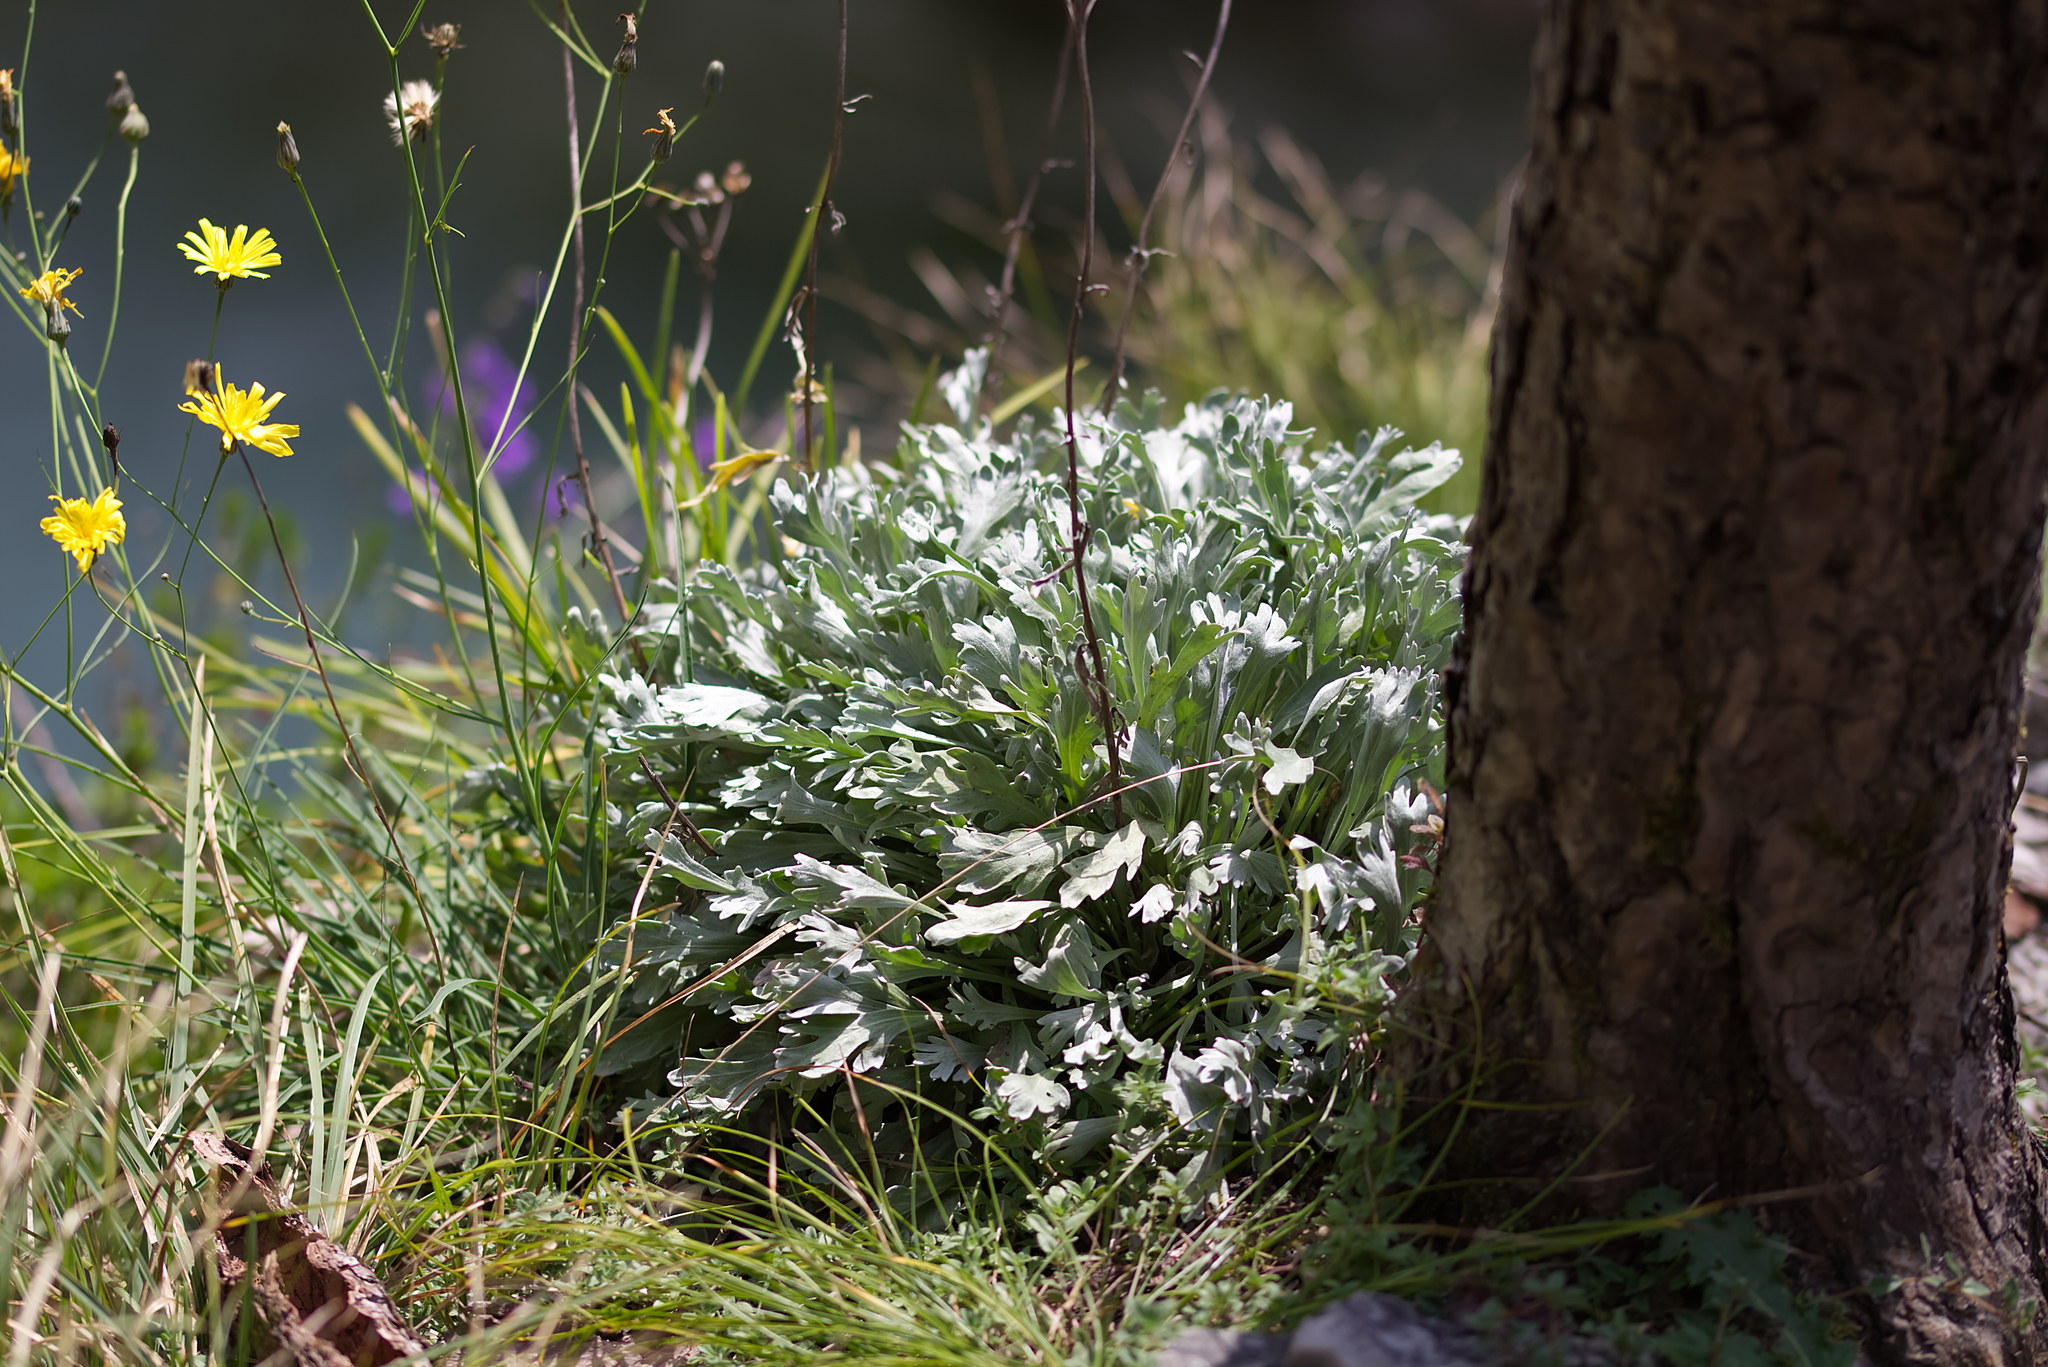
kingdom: Plantae
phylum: Tracheophyta
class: Magnoliopsida
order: Asterales
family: Asteraceae
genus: Achillea
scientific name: Achillea clavennae
